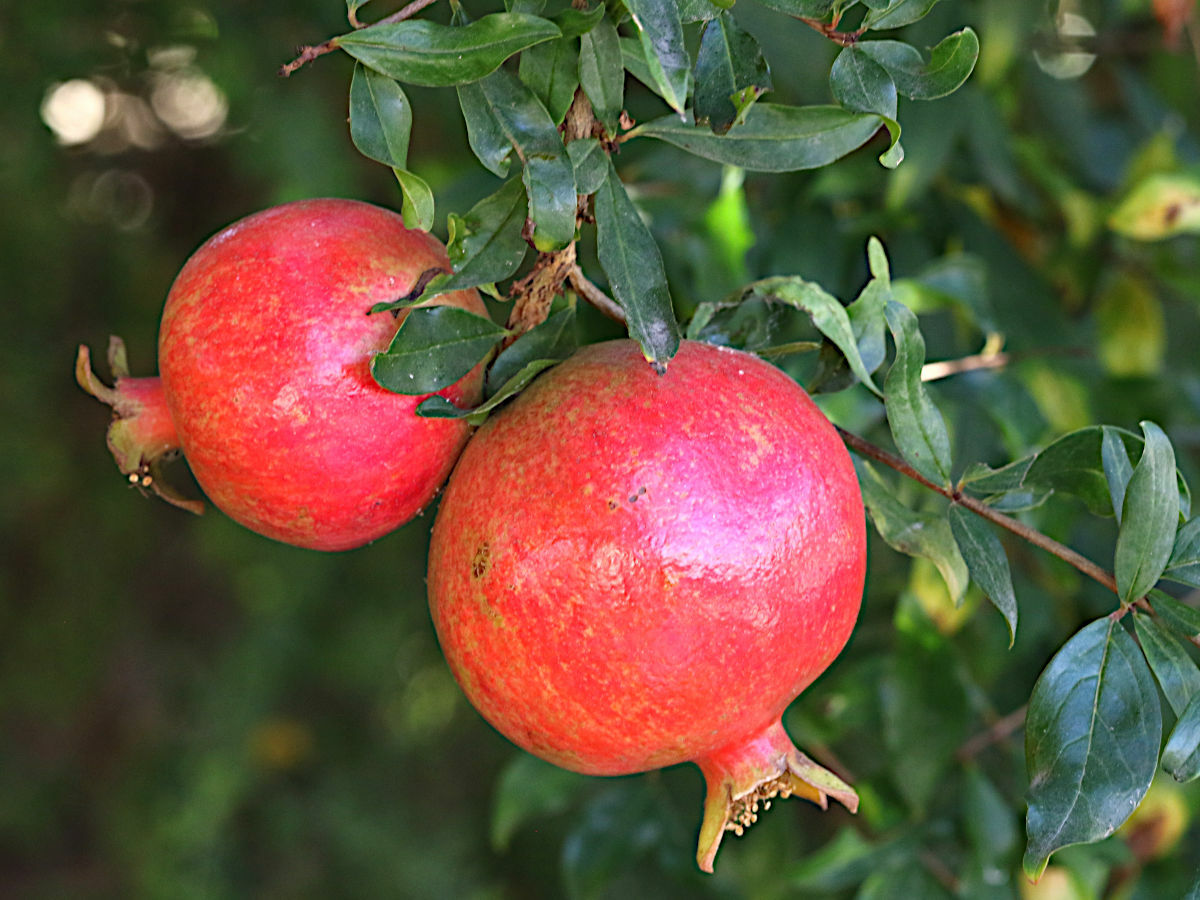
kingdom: Plantae
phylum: Tracheophyta
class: Magnoliopsida
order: Myrtales
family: Lythraceae
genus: Punica
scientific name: Punica granatum
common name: Pomegranate
